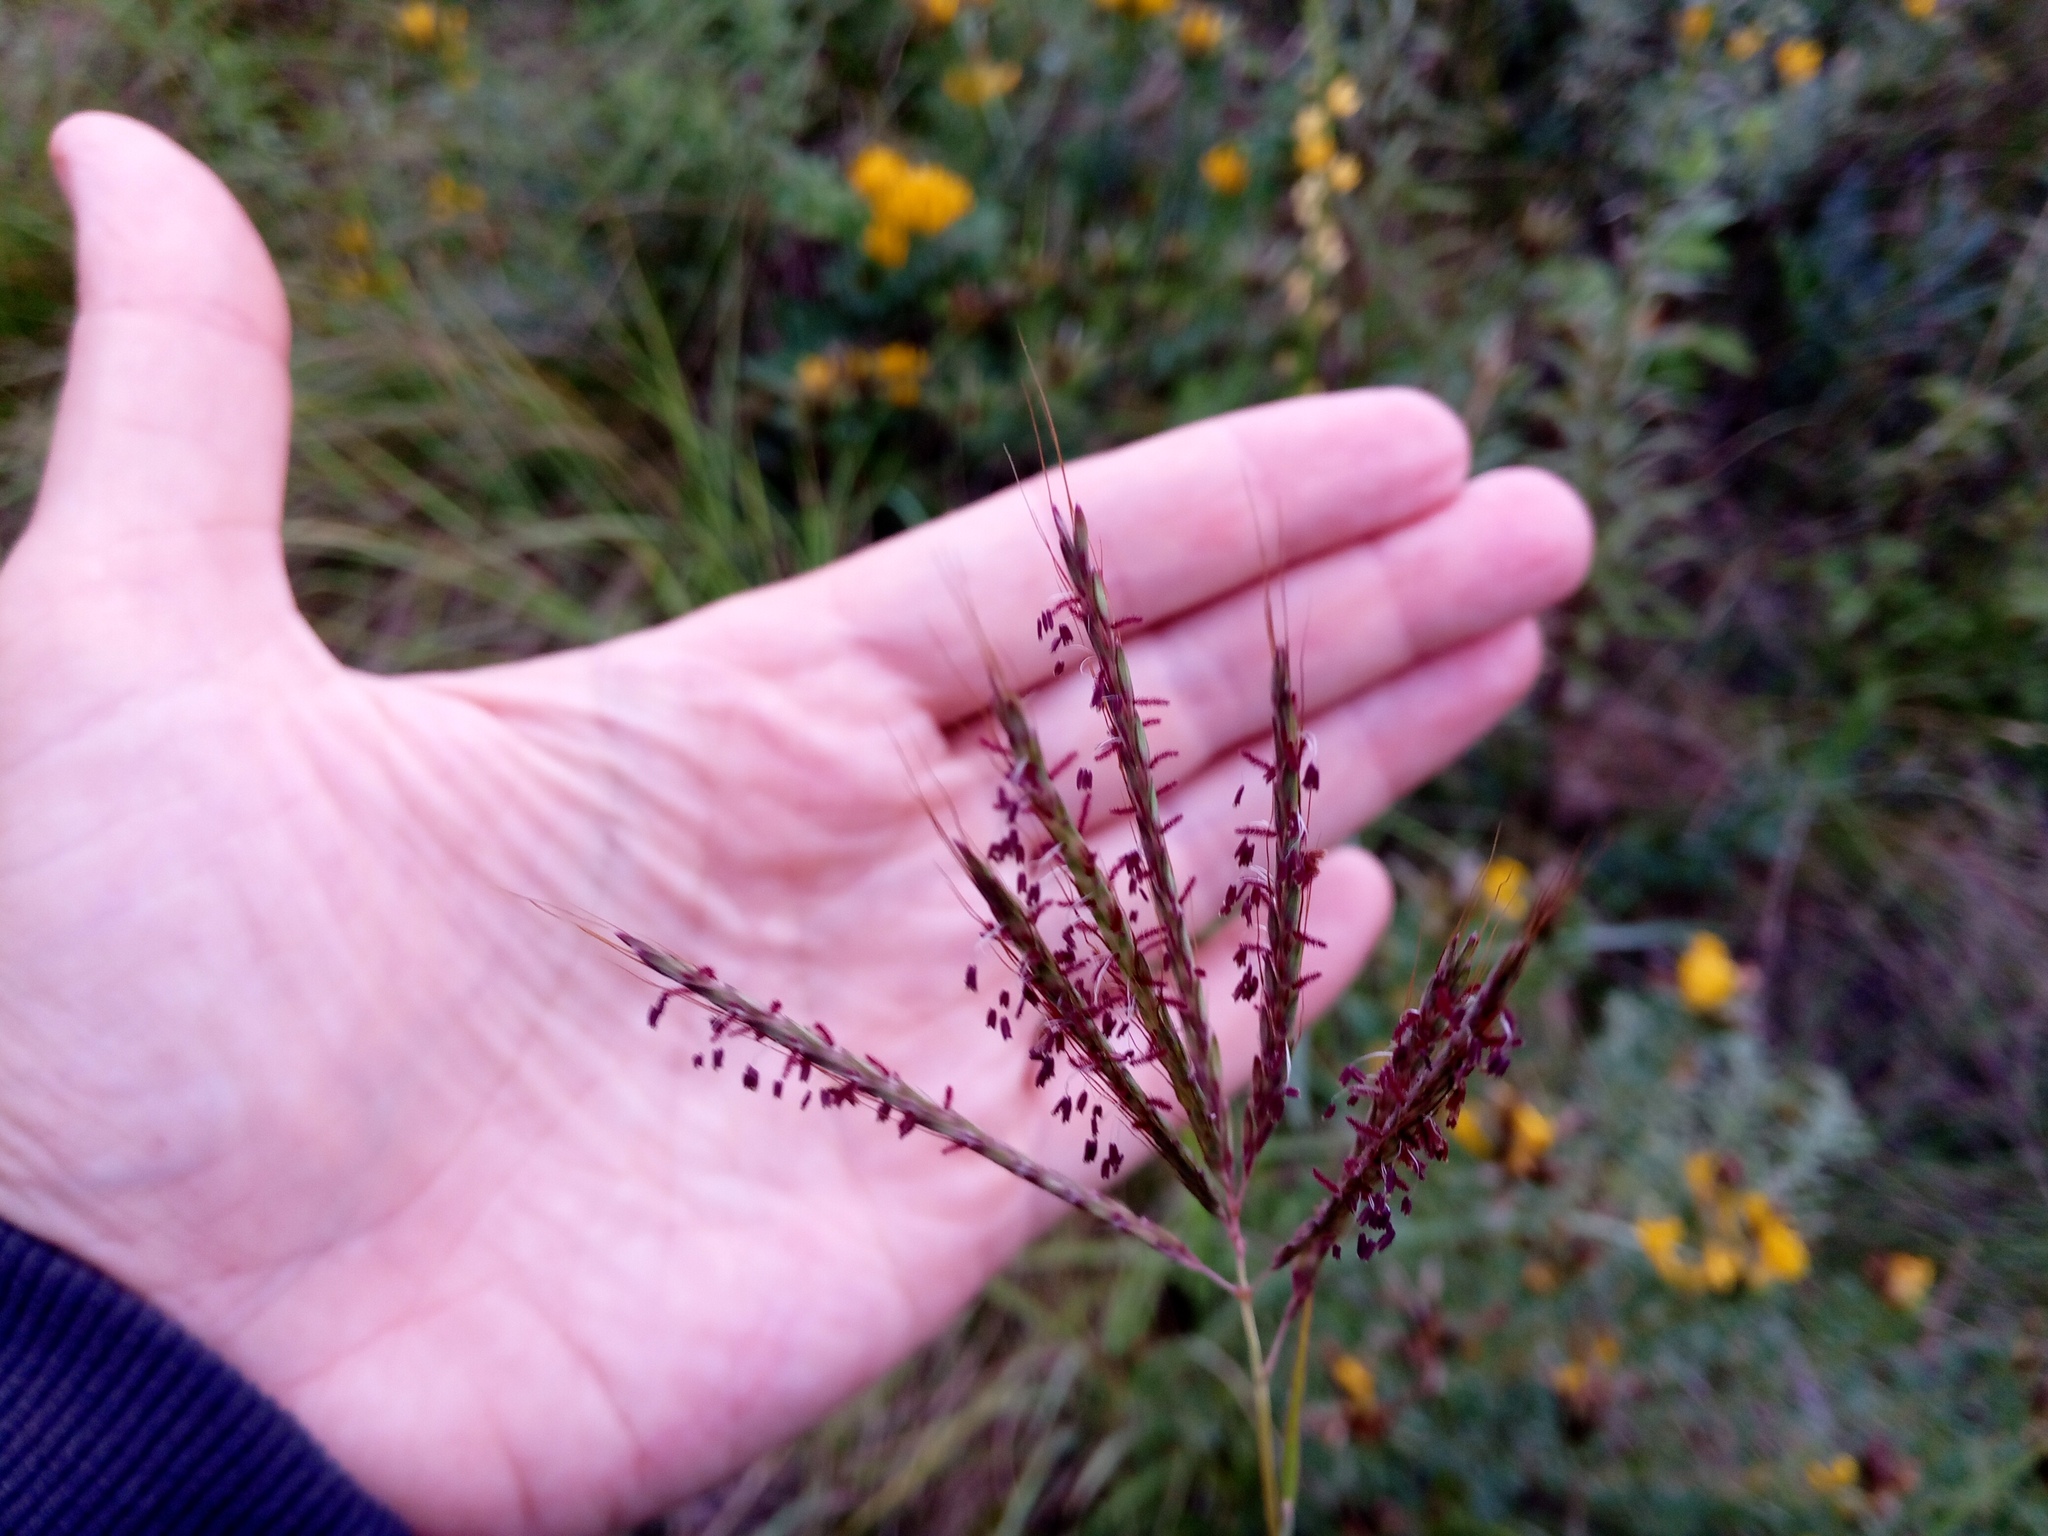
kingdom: Plantae
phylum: Tracheophyta
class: Liliopsida
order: Poales
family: Poaceae
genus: Bothriochloa
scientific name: Bothriochloa ischaemum
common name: Yellow bluestem
